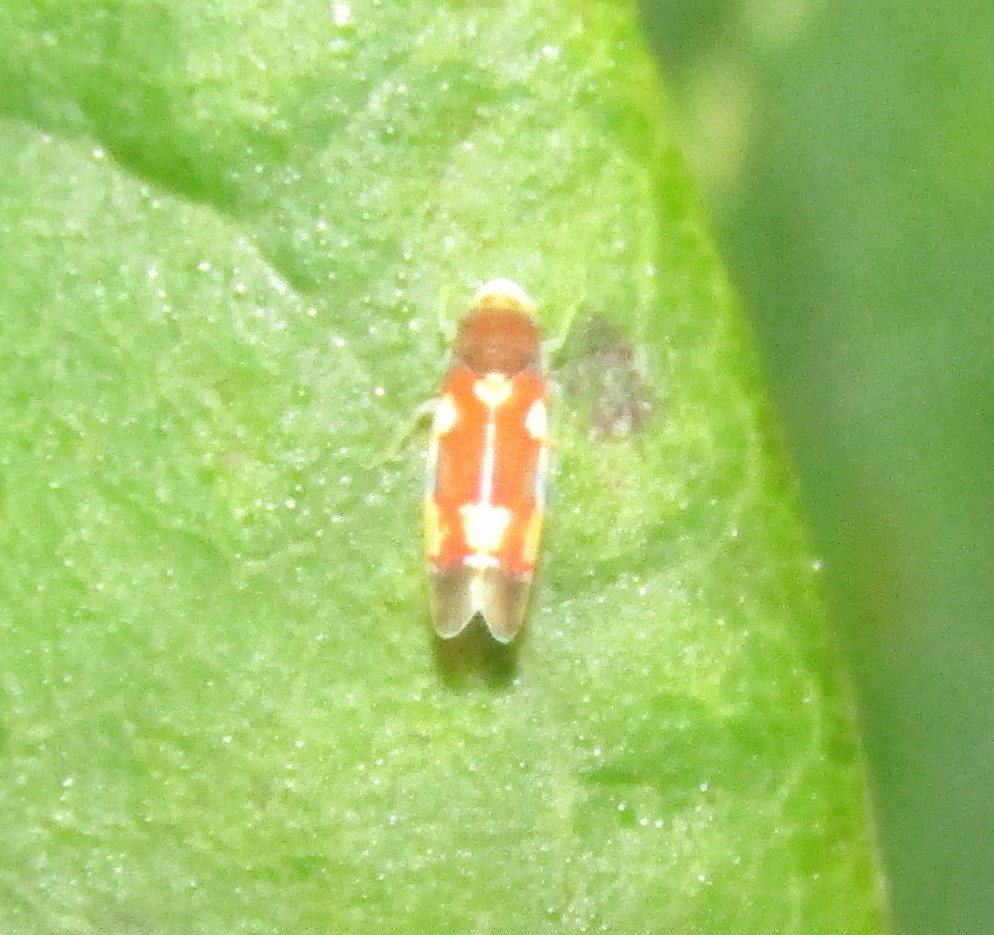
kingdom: Animalia
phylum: Arthropoda
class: Insecta
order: Hemiptera
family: Cicadellidae
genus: Erythroneura
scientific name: Erythroneura bistrata
